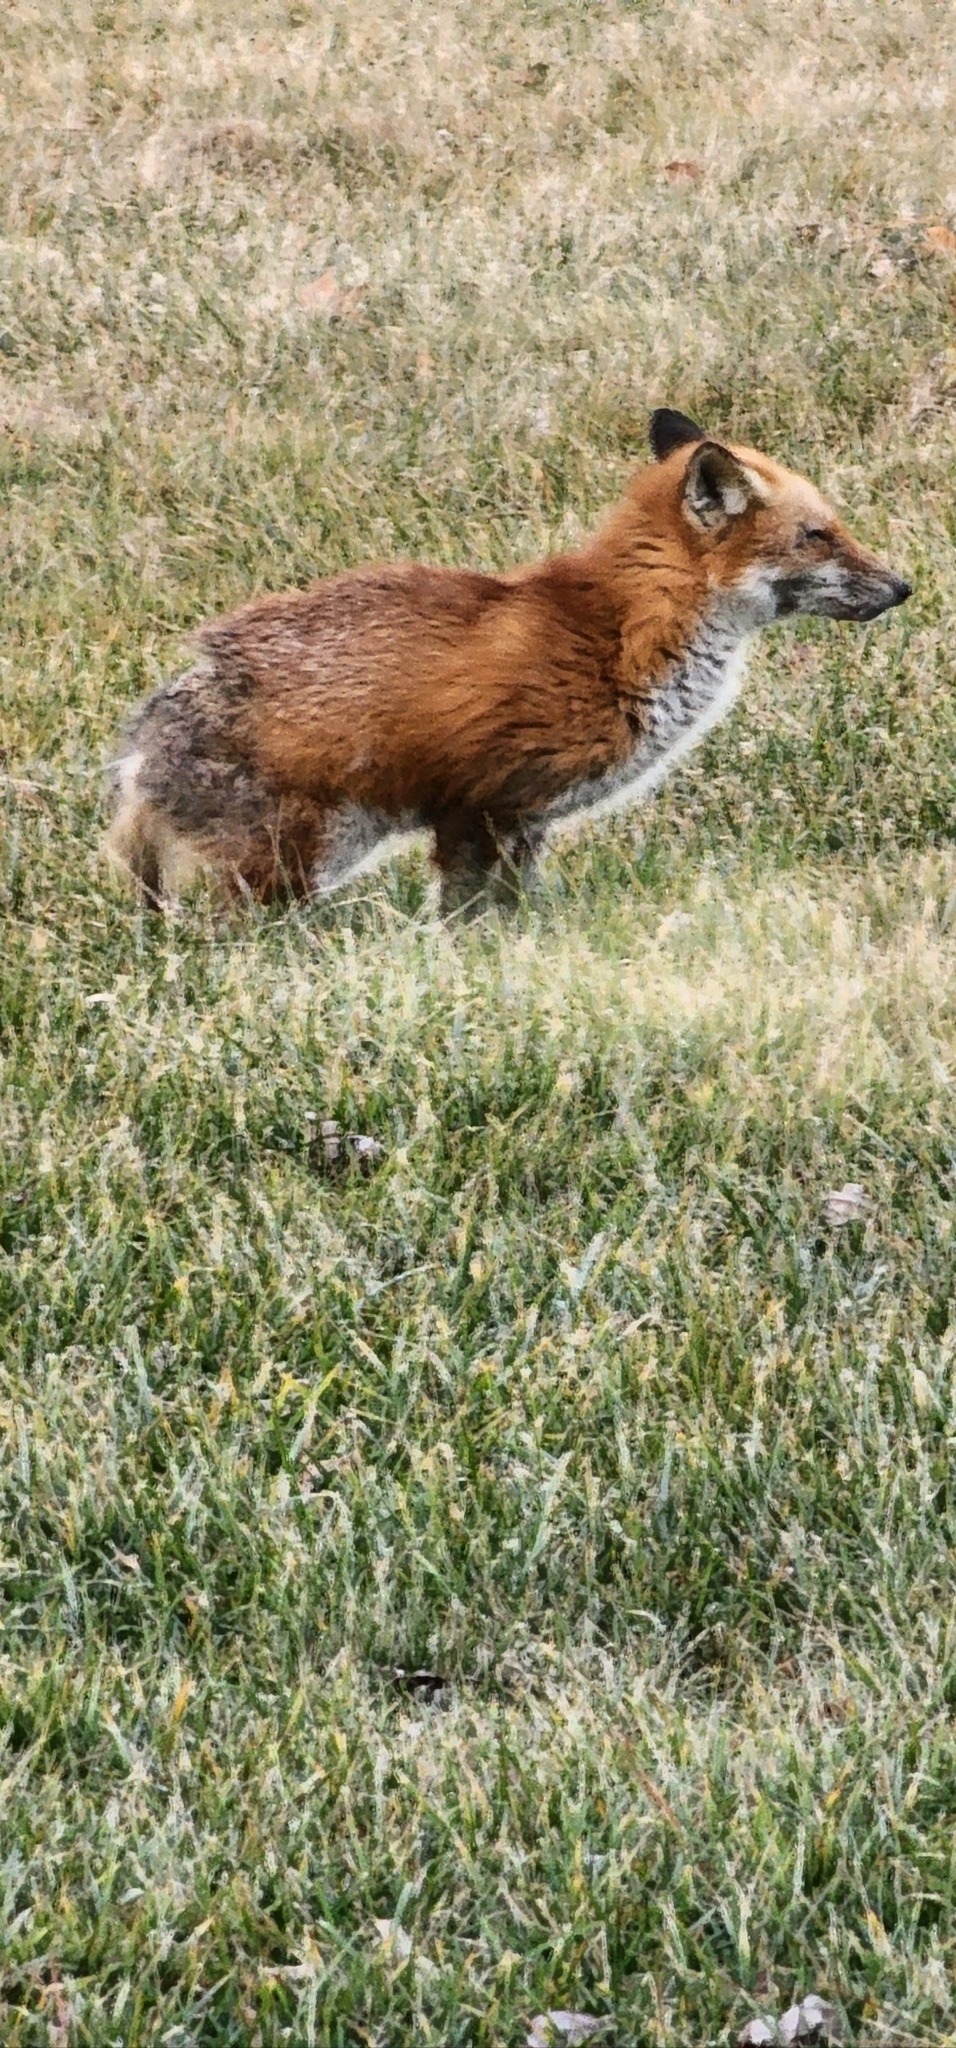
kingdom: Animalia
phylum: Chordata
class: Mammalia
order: Carnivora
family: Canidae
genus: Vulpes
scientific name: Vulpes vulpes
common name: Red fox
